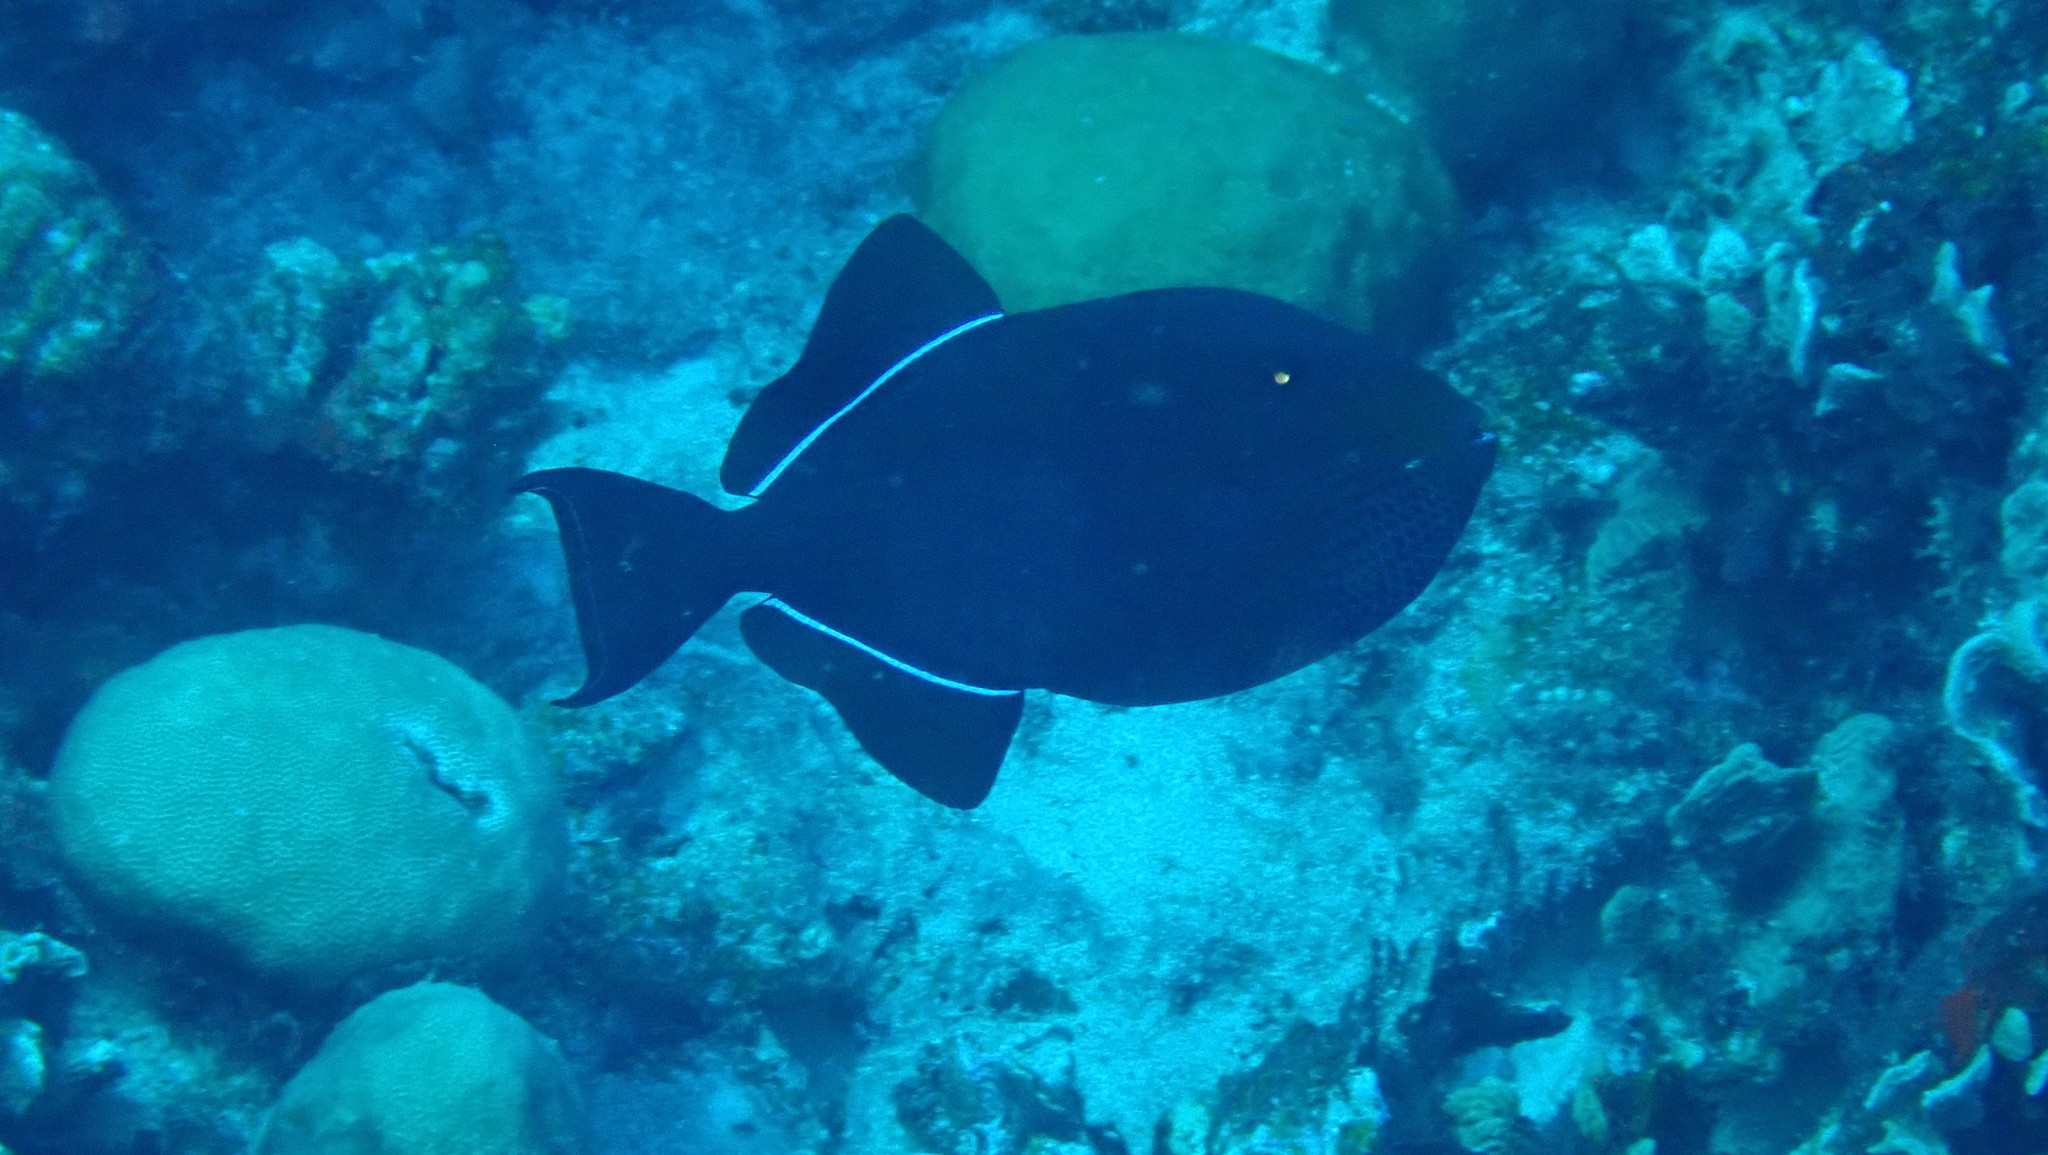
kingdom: Animalia
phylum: Chordata
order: Tetraodontiformes
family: Balistidae
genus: Melichthys
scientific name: Melichthys niger
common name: Black durgon
